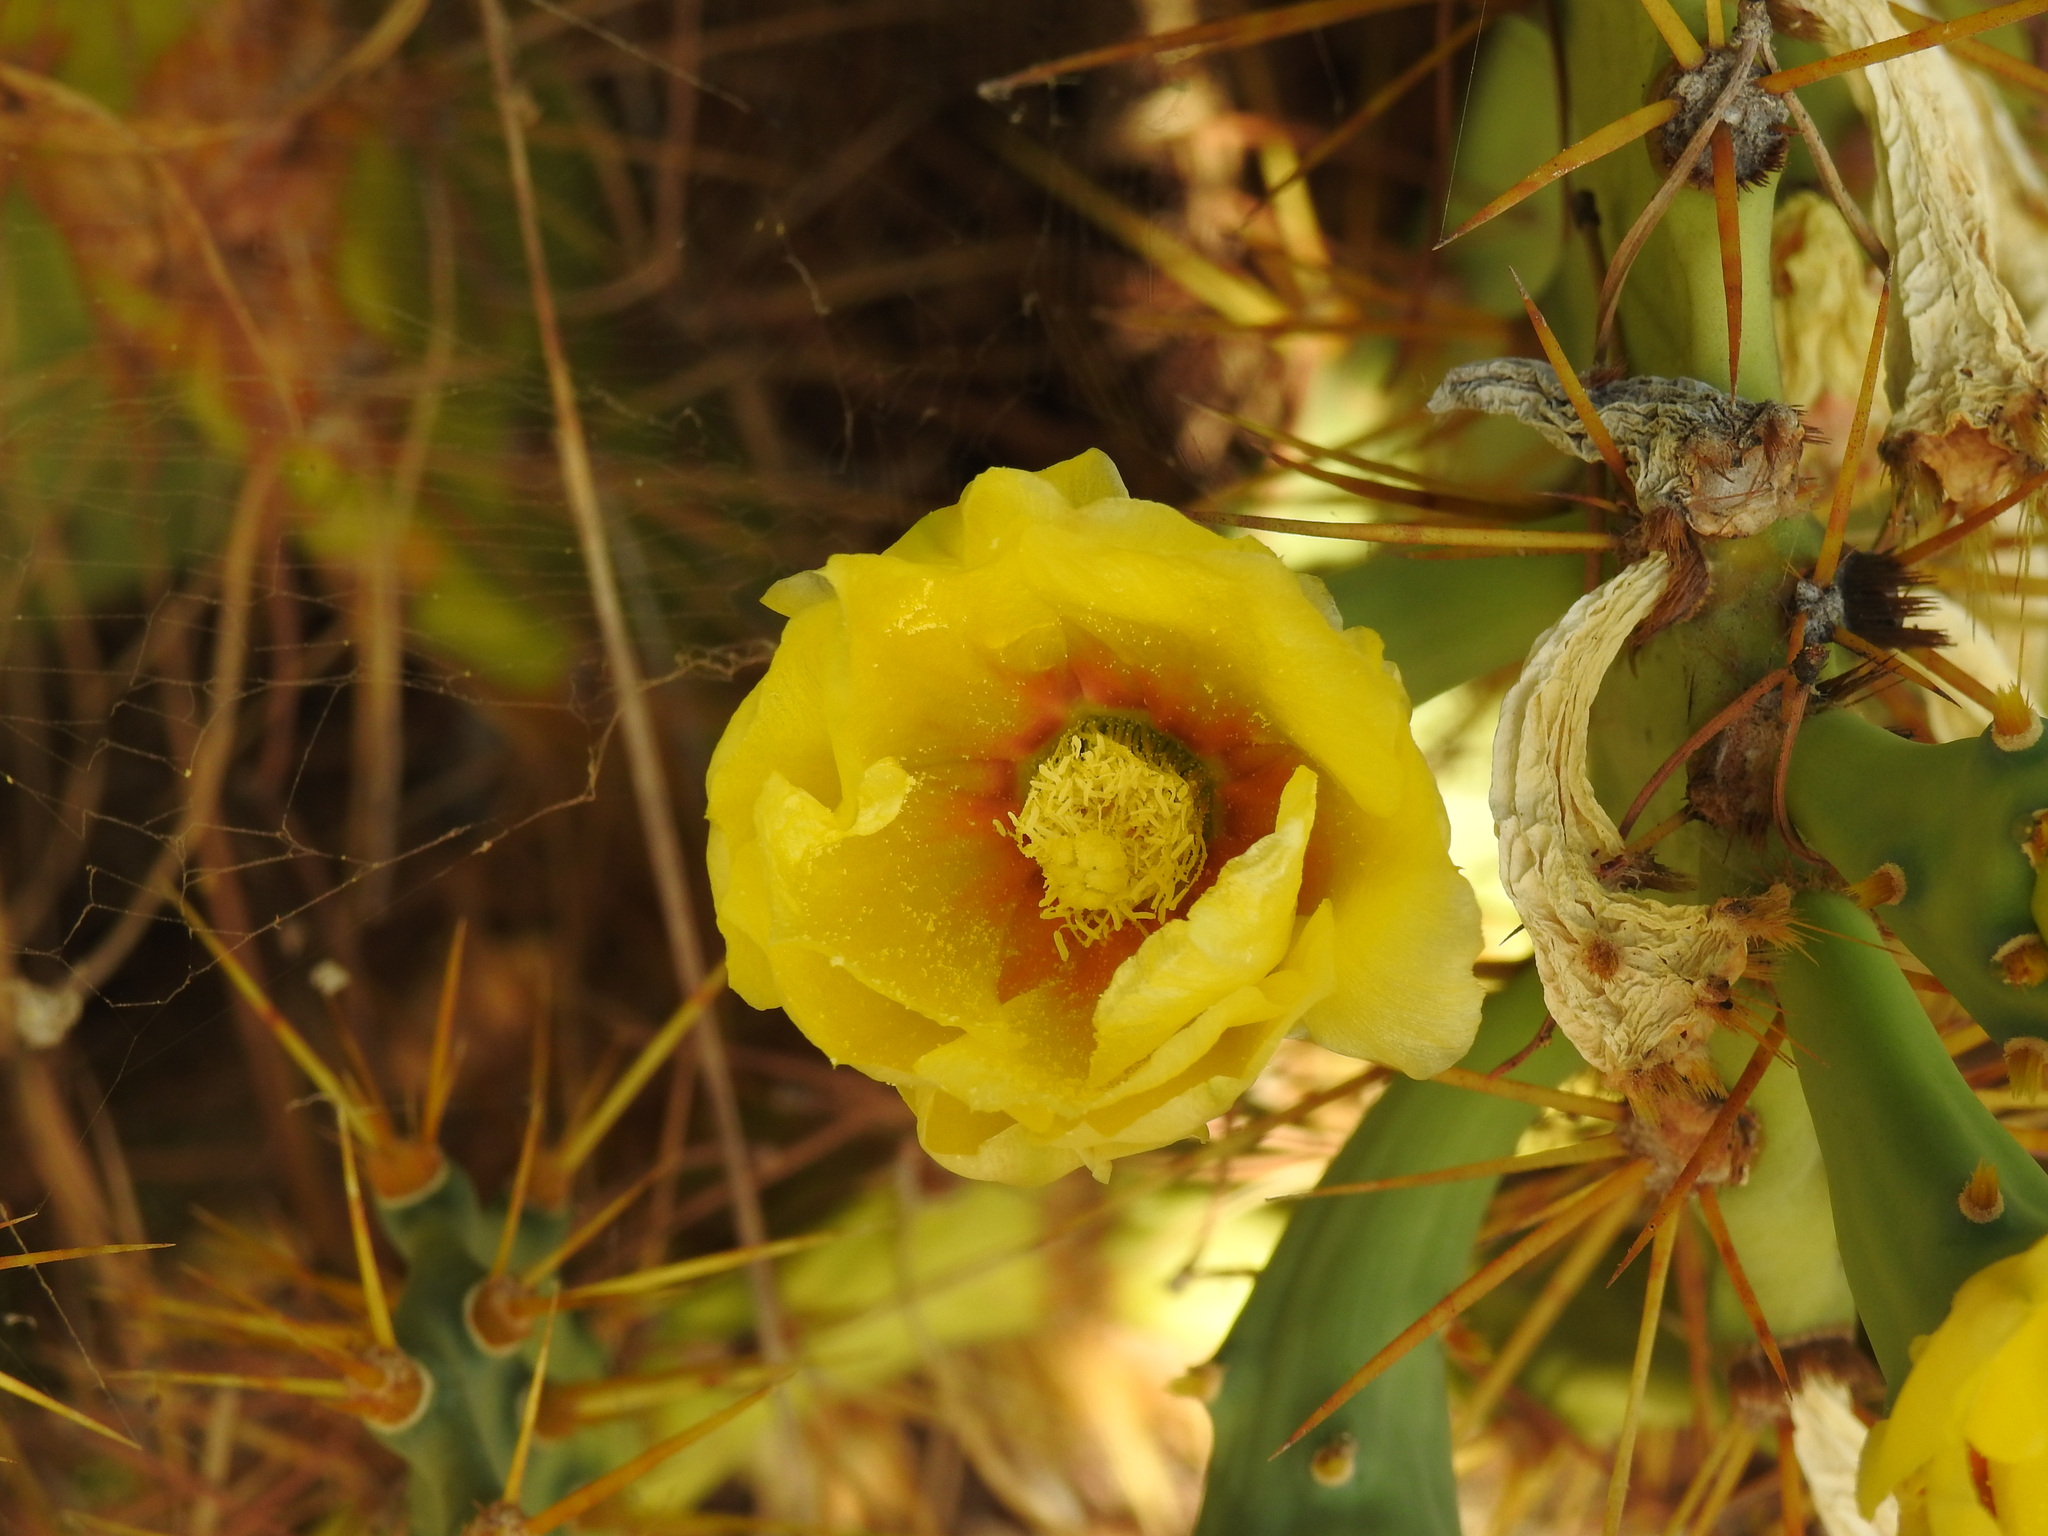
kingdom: Plantae
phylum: Tracheophyta
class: Magnoliopsida
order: Caryophyllales
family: Cactaceae
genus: Opuntia
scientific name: Opuntia stricta
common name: Erect pricklypear
